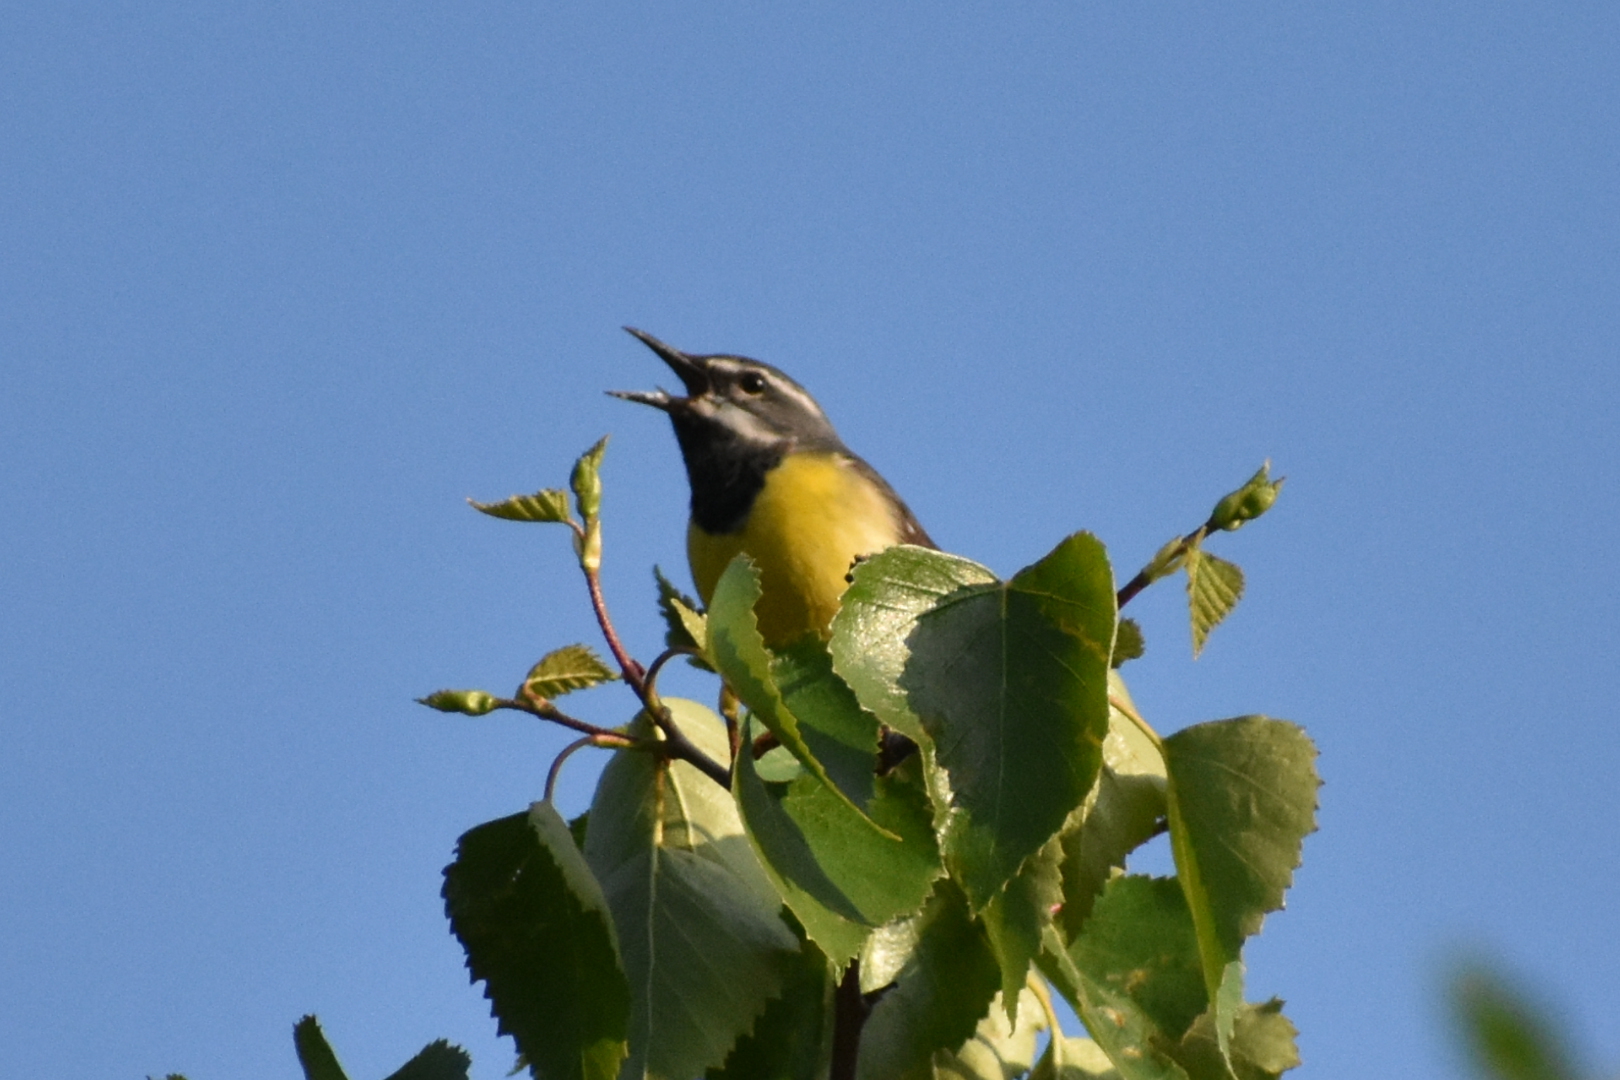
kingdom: Animalia
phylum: Chordata
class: Aves
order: Passeriformes
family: Motacillidae
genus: Motacilla
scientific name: Motacilla cinerea
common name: Grey wagtail
